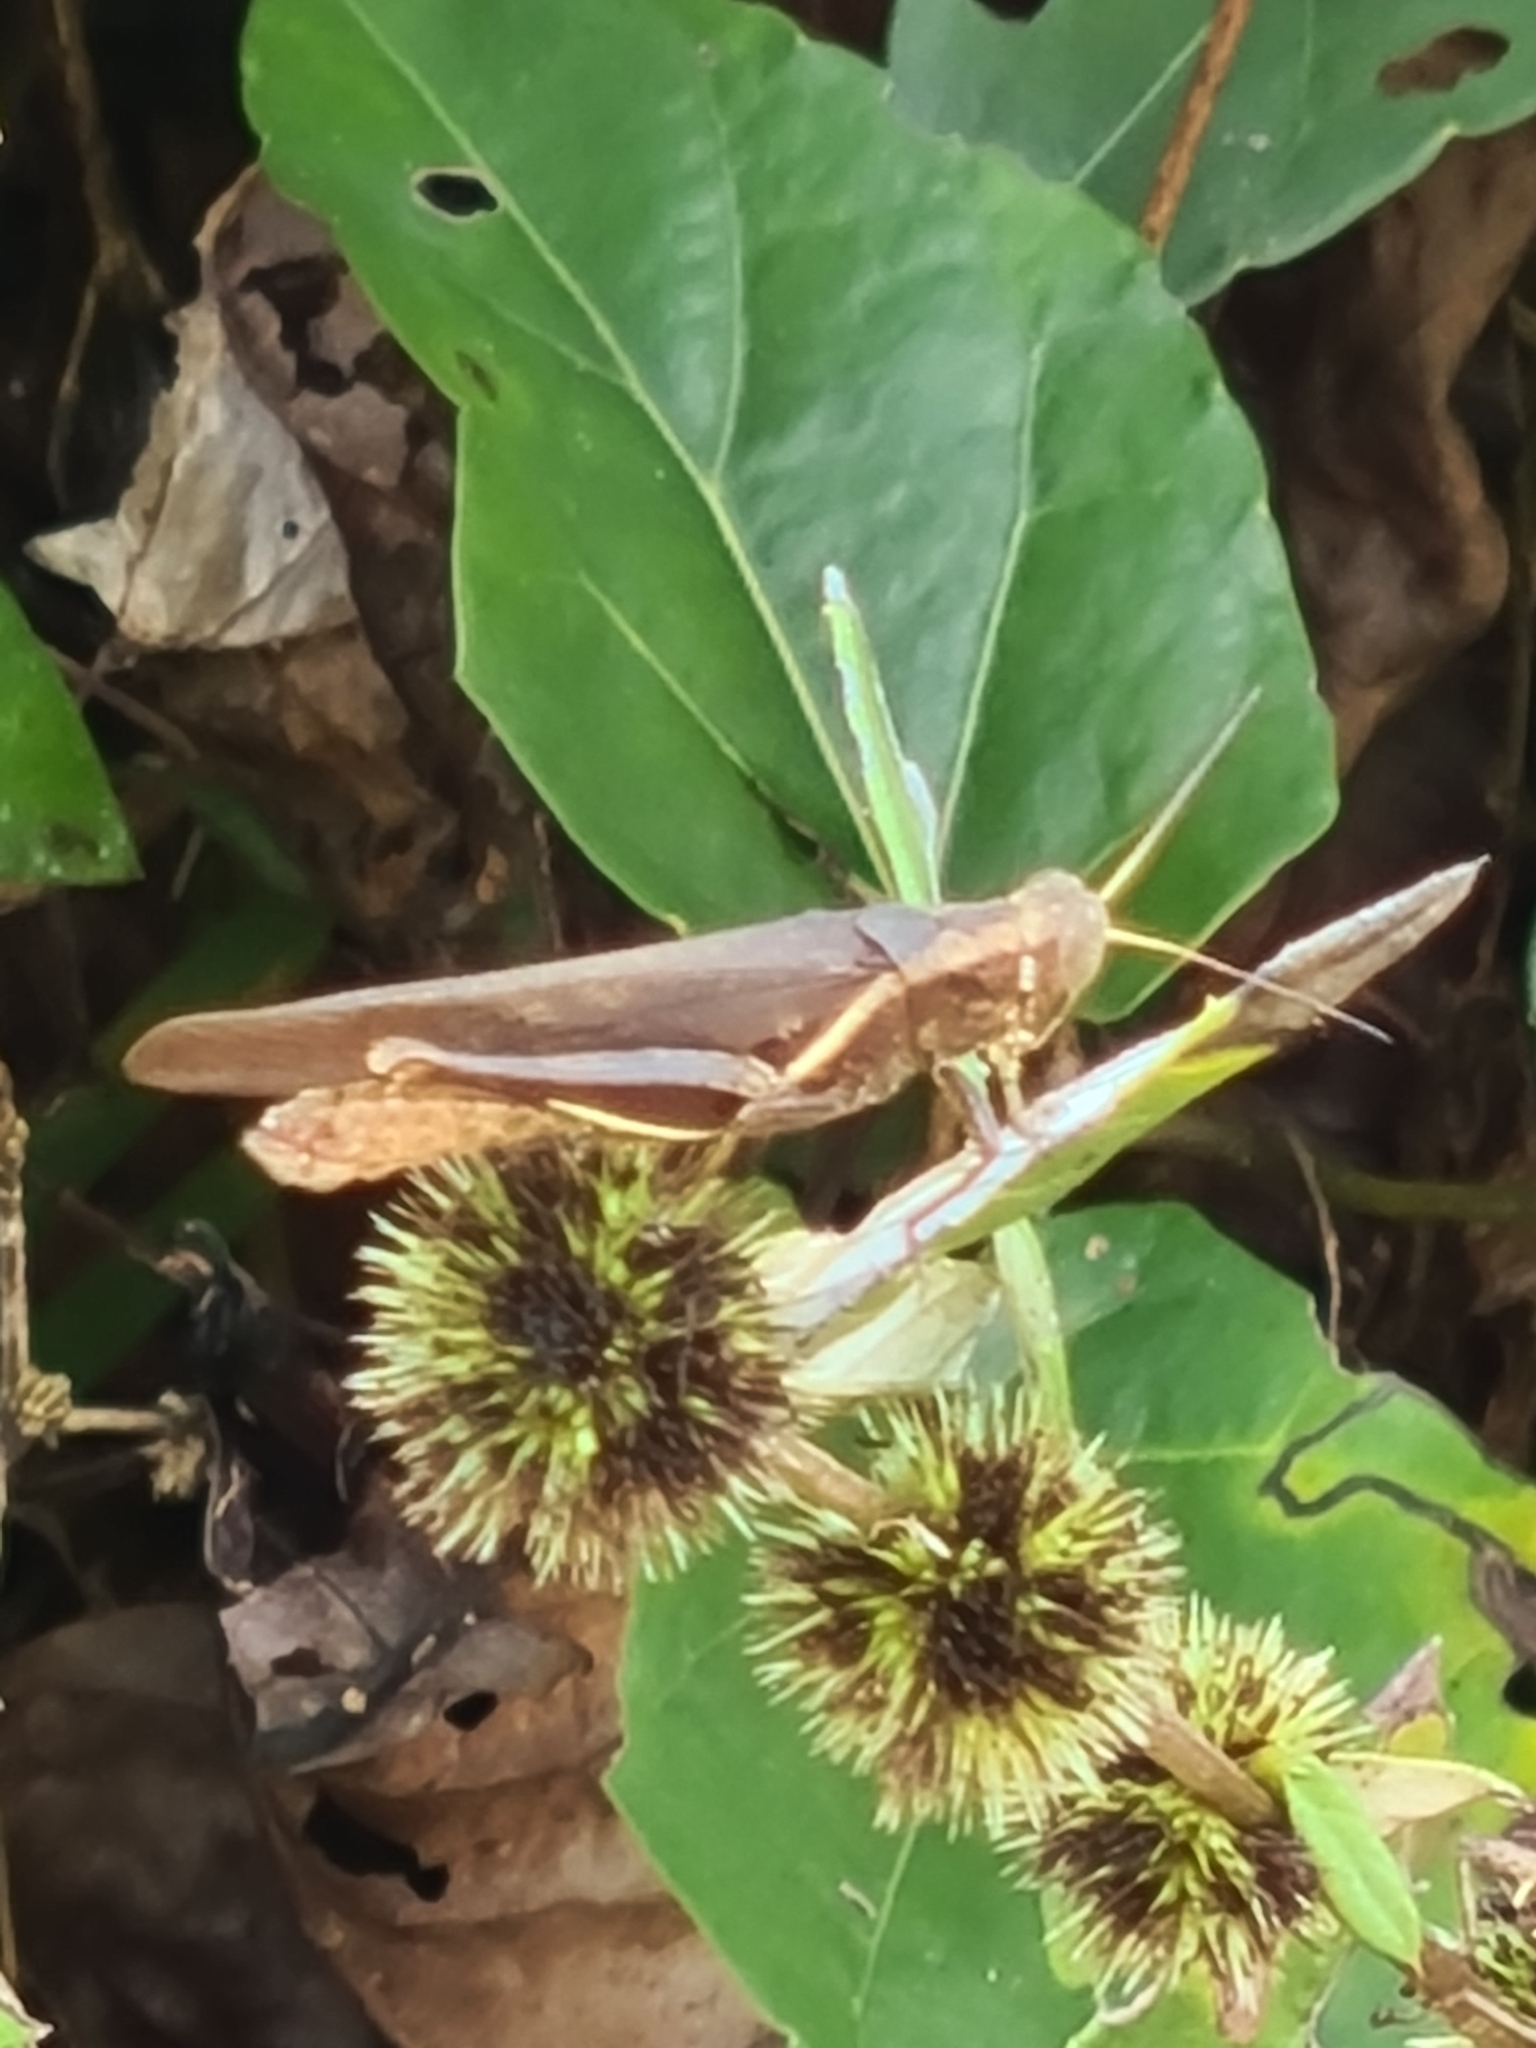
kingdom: Animalia
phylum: Arthropoda
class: Insecta
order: Orthoptera
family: Acrididae
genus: Abracris
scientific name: Abracris flavolineata
